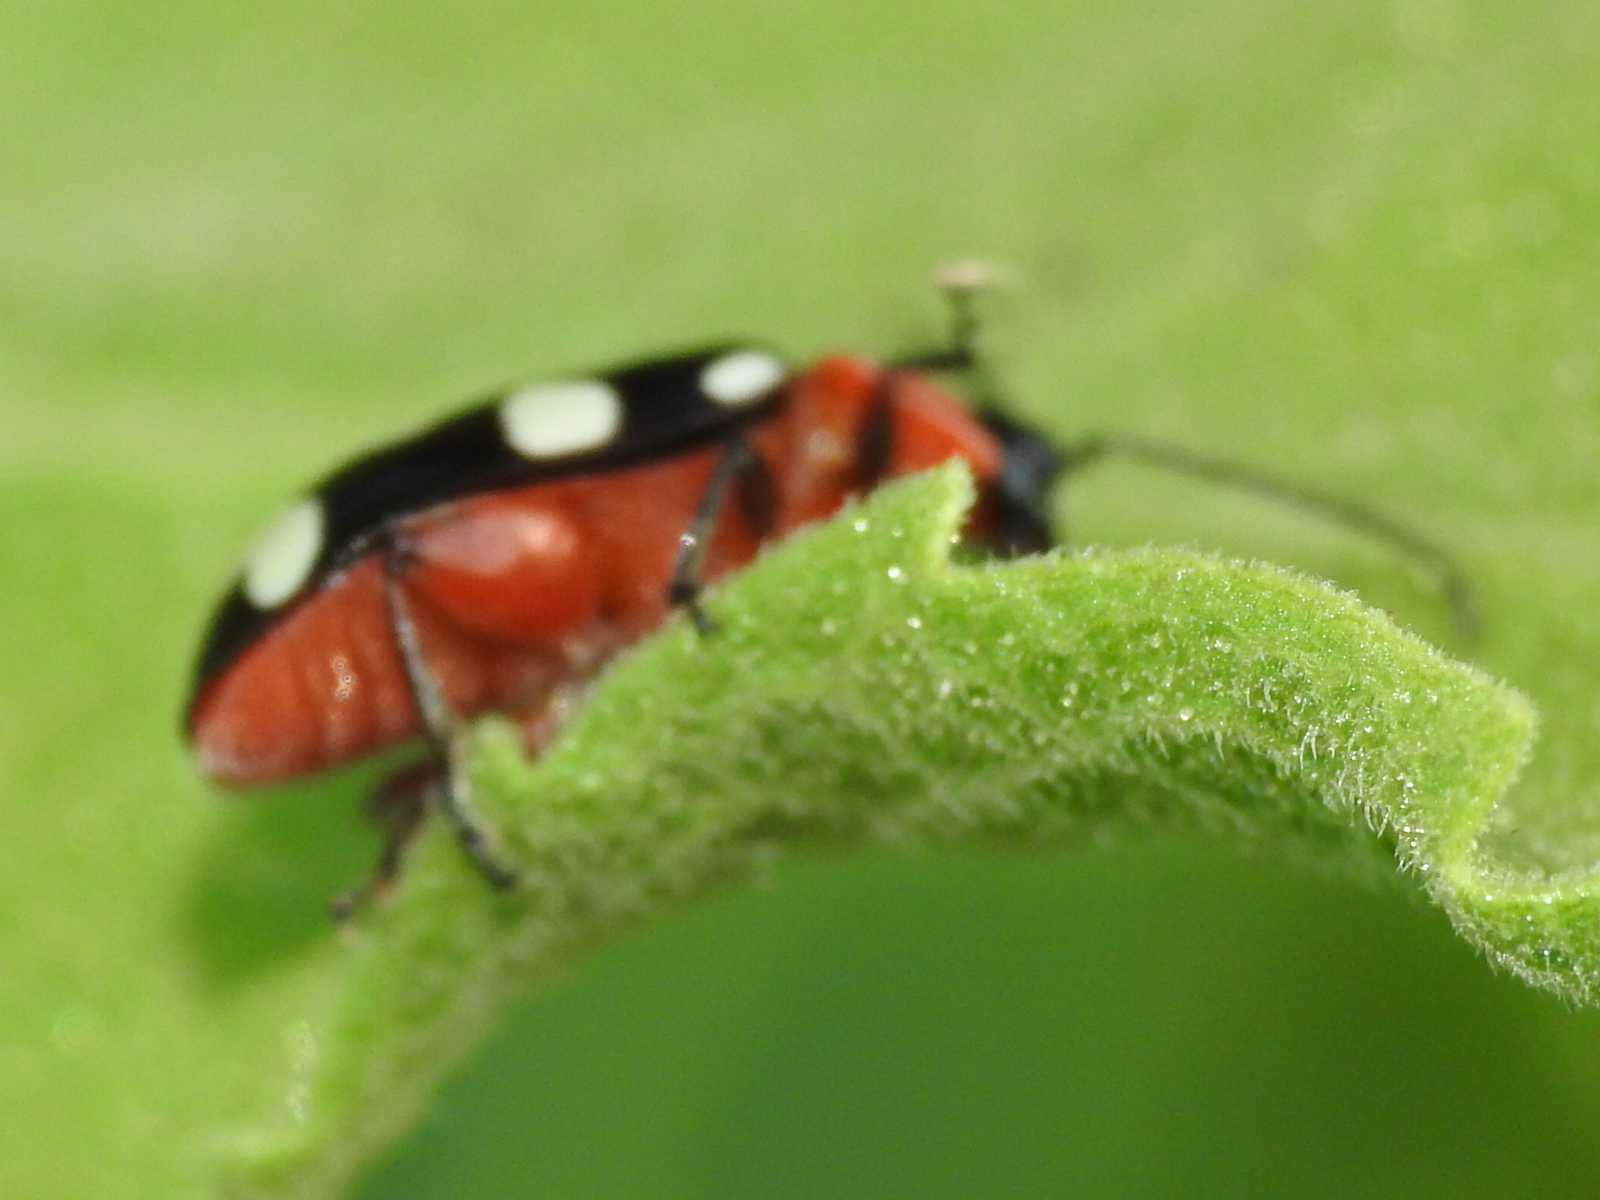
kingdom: Animalia
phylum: Arthropoda
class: Insecta
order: Coleoptera
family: Chrysomelidae
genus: Omophoita
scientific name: Omophoita cyanipennis
